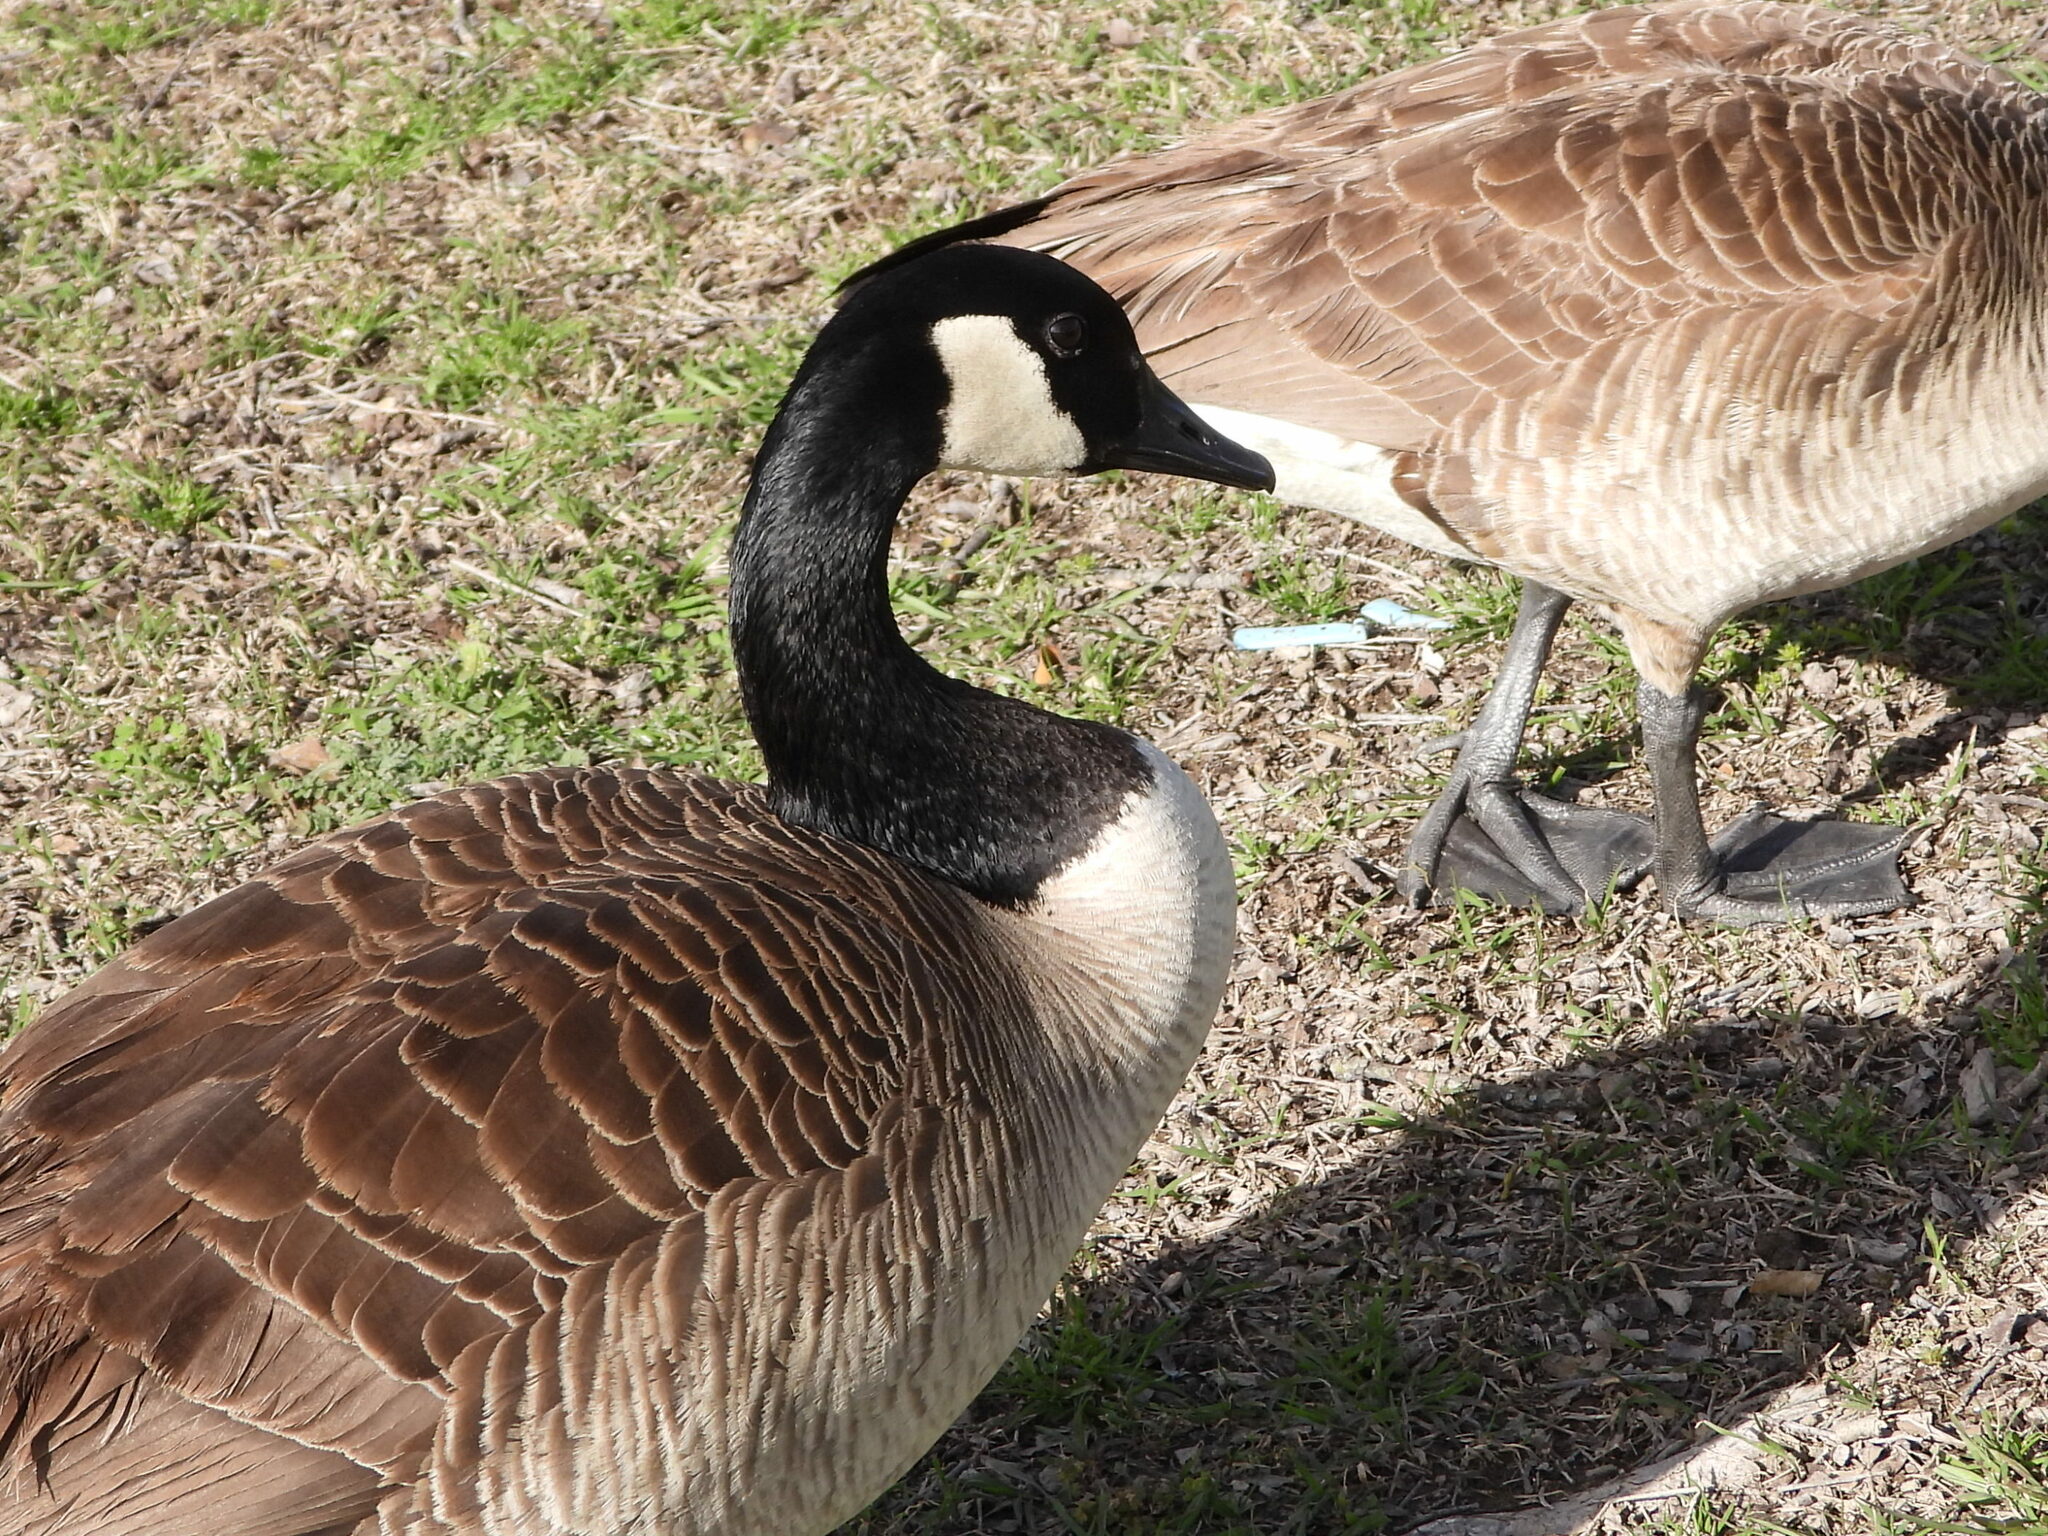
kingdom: Animalia
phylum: Chordata
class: Aves
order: Anseriformes
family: Anatidae
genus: Branta
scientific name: Branta canadensis
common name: Canada goose
